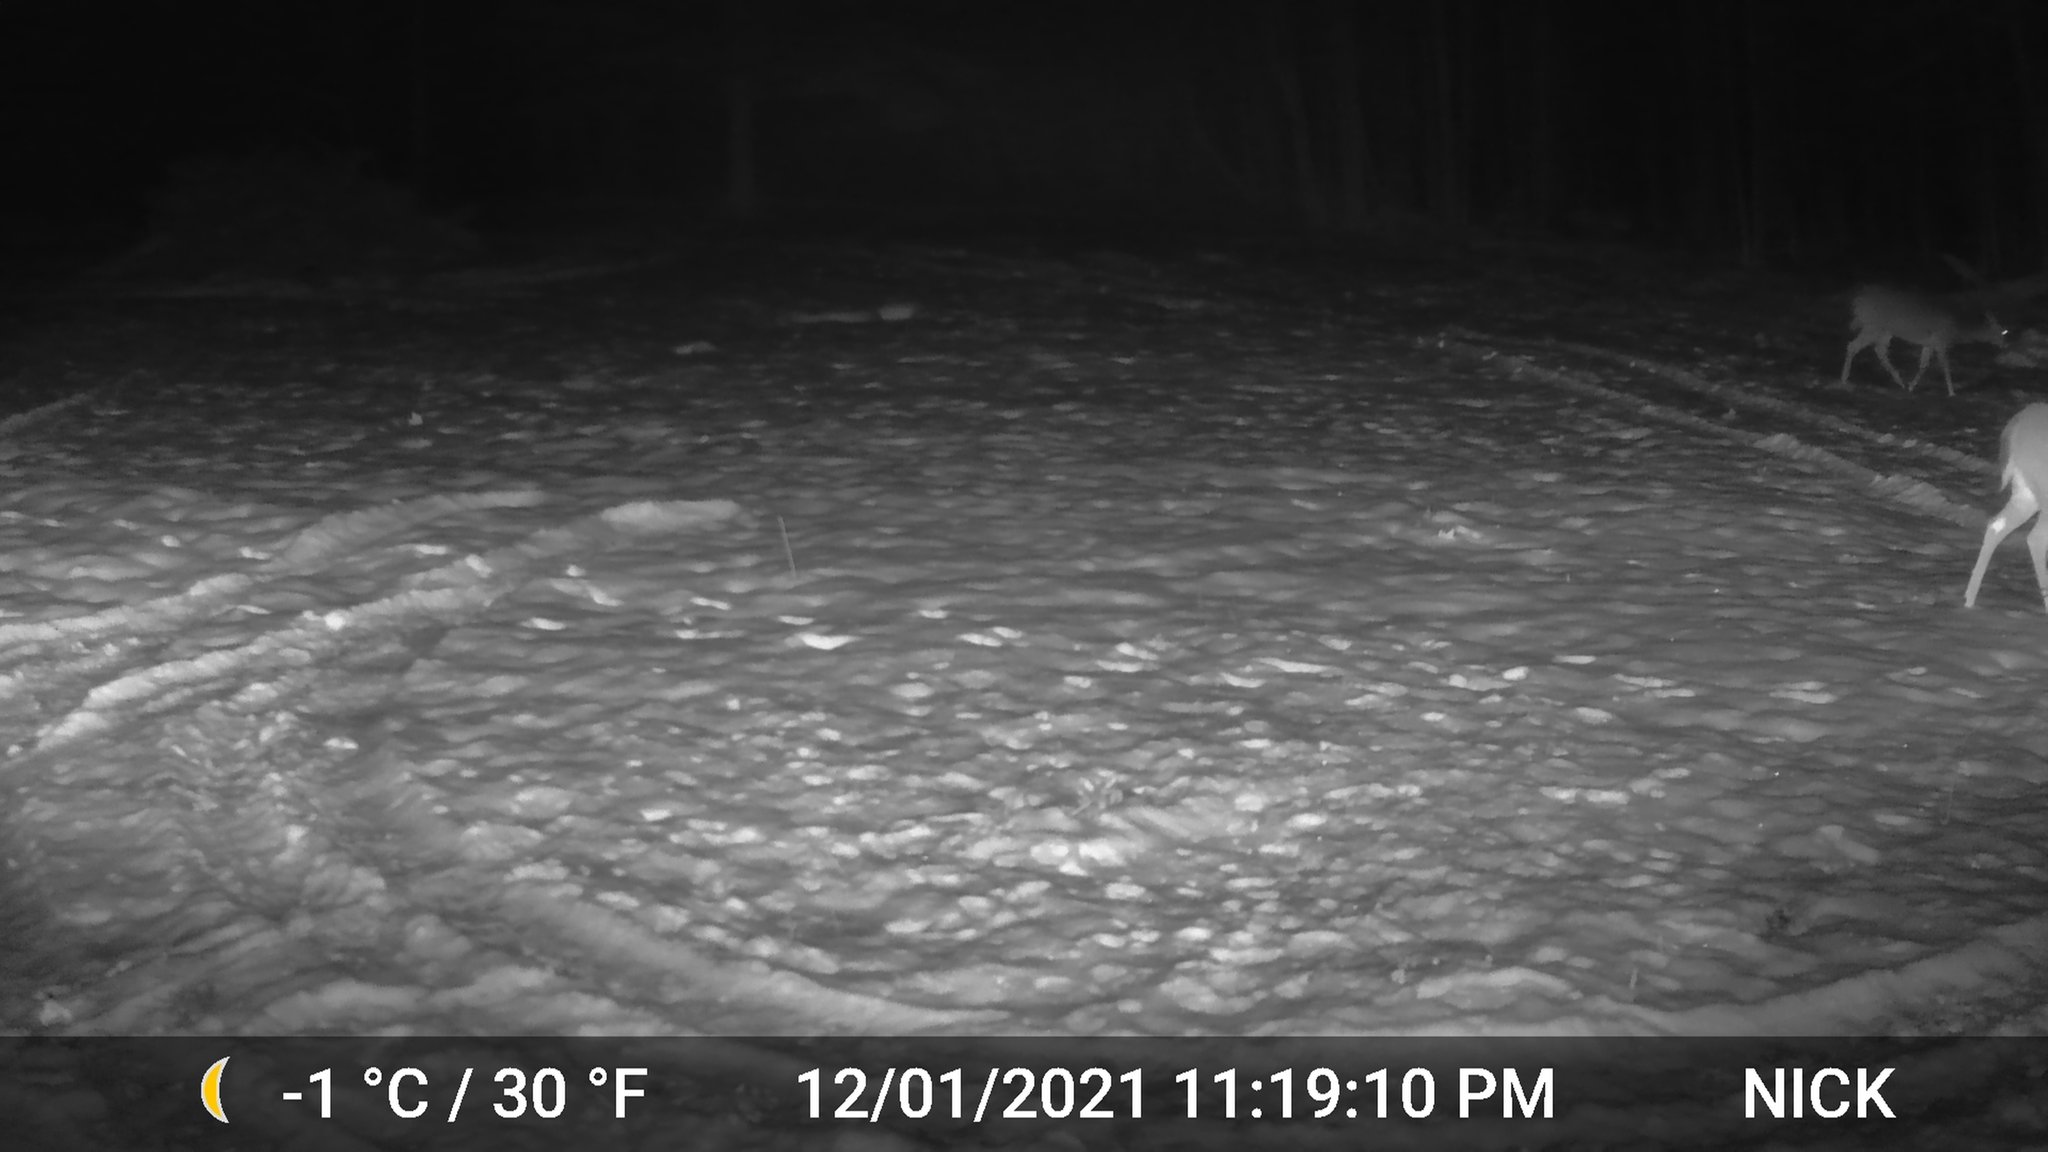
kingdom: Animalia
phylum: Chordata
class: Mammalia
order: Artiodactyla
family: Cervidae
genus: Odocoileus
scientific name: Odocoileus virginianus
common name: White-tailed deer
